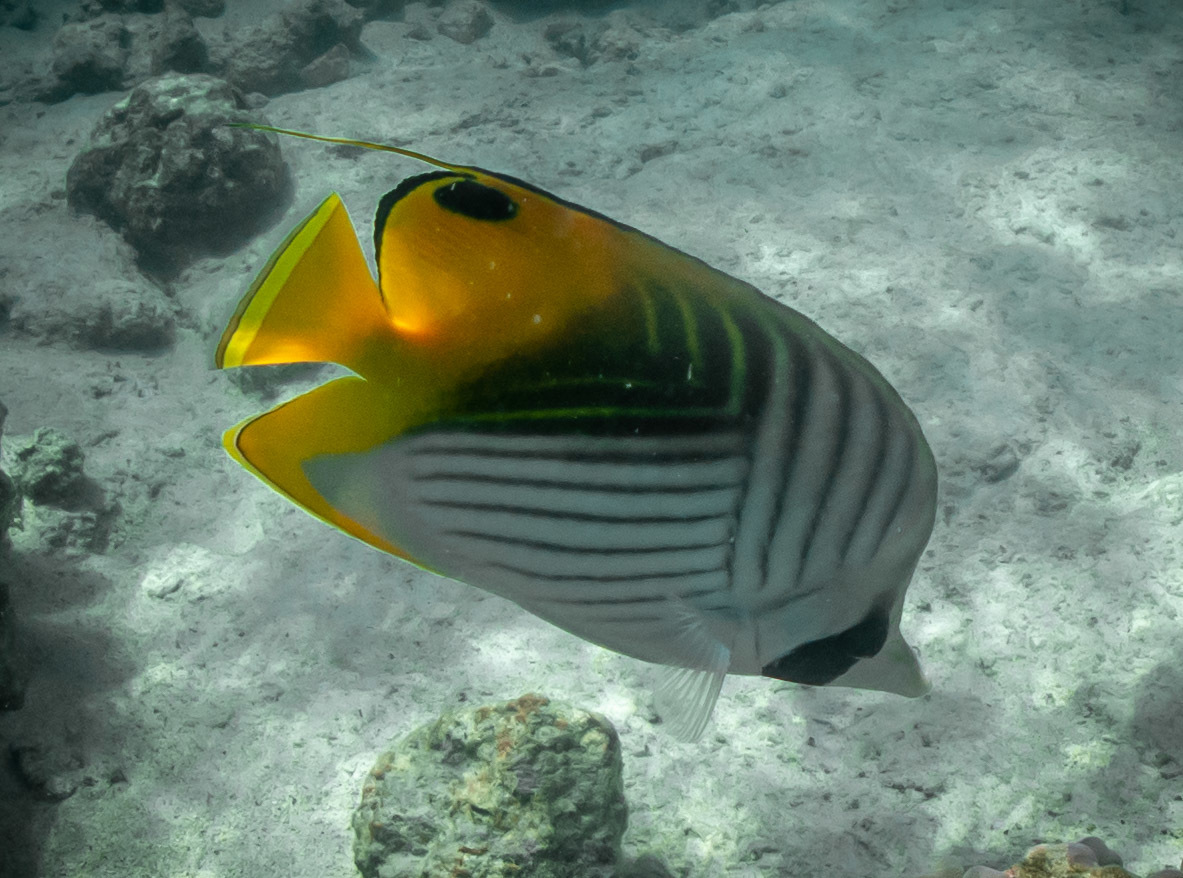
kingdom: Animalia
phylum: Chordata
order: Perciformes
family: Chaetodontidae
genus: Chaetodon
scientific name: Chaetodon auriga
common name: Threadfin butterflyfish
